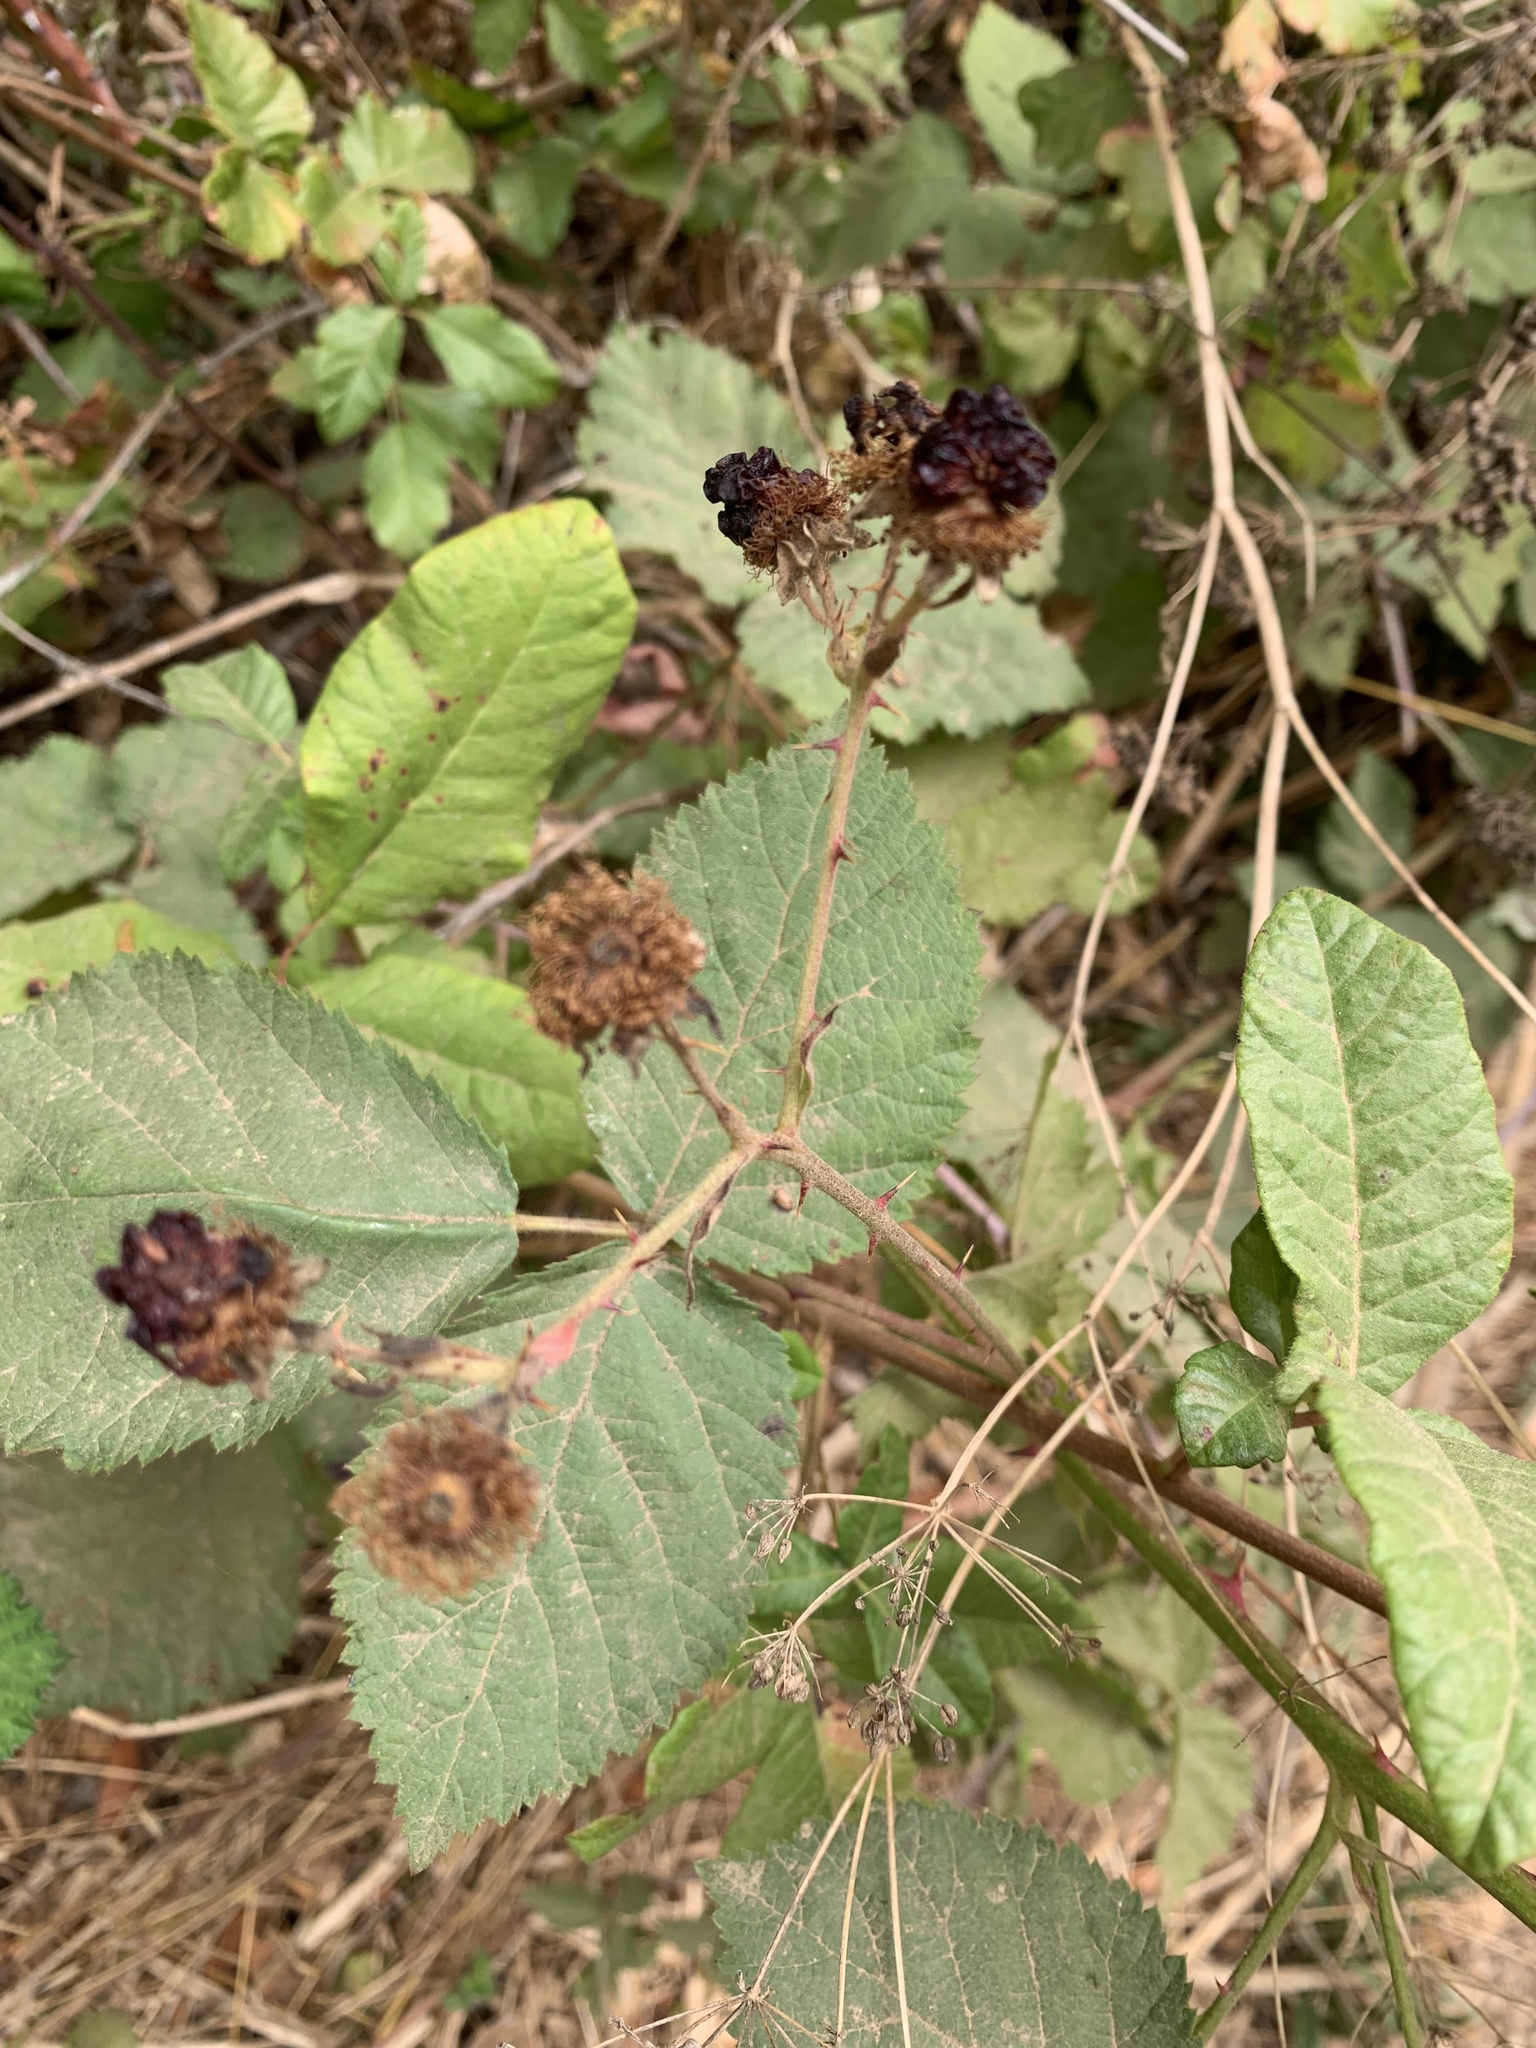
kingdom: Plantae
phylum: Tracheophyta
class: Magnoliopsida
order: Rosales
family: Rosaceae
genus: Rubus
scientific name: Rubus armeniacus
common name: Himalayan blackberry
